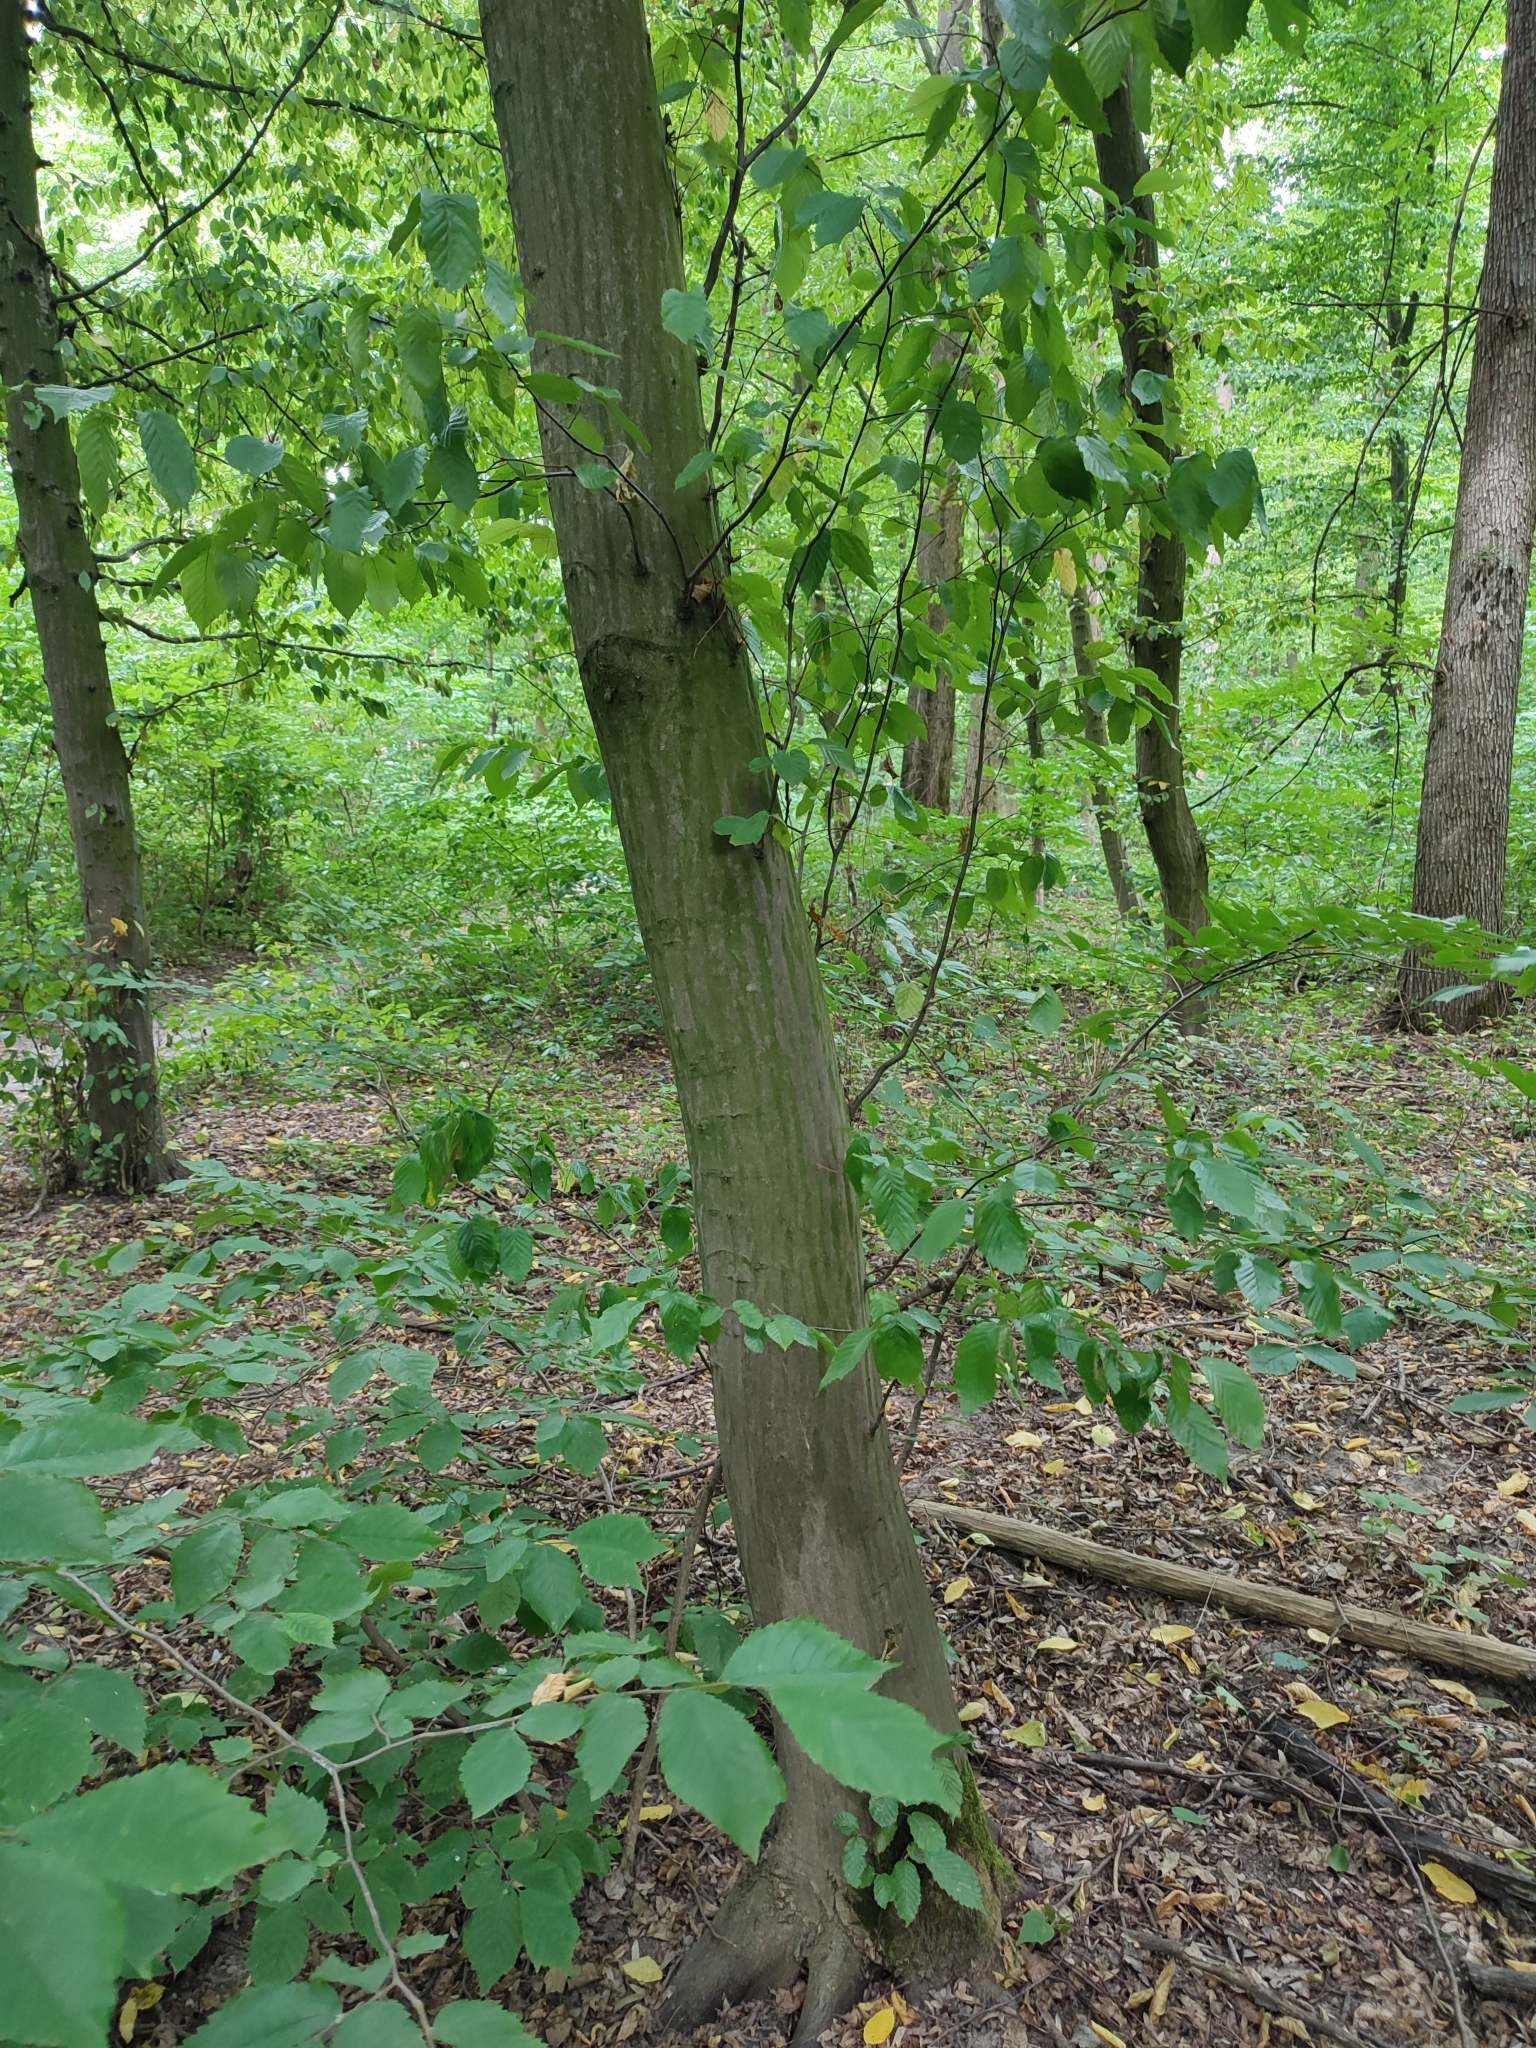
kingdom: Plantae
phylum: Tracheophyta
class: Magnoliopsida
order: Fagales
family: Betulaceae
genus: Carpinus
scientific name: Carpinus betulus
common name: Hornbeam
